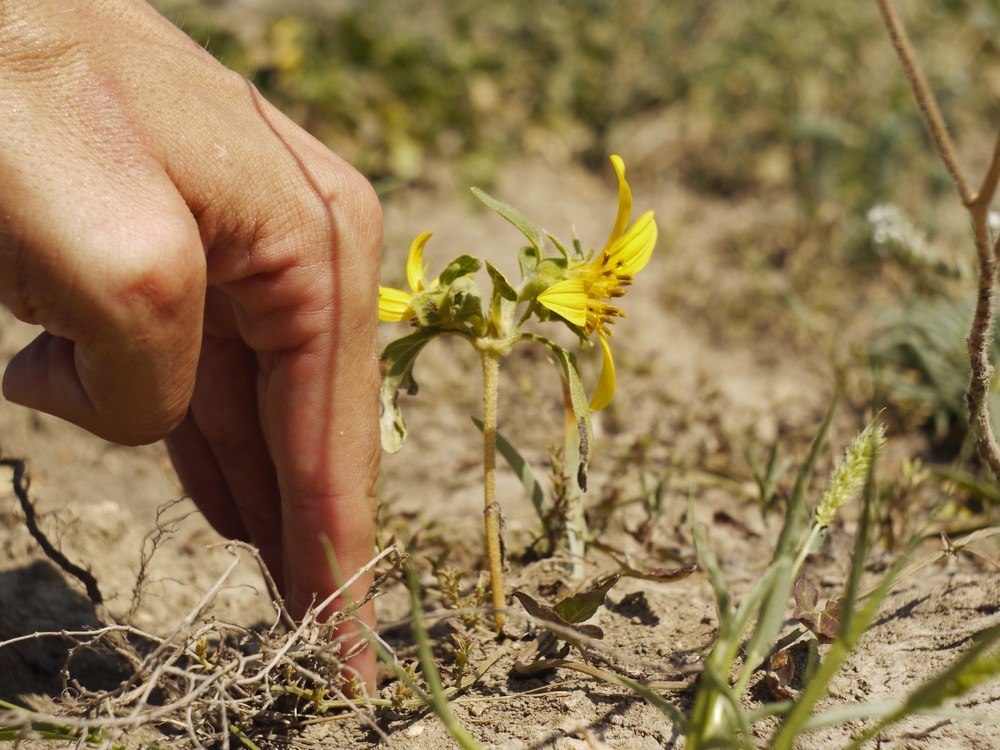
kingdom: Plantae
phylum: Tracheophyta
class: Magnoliopsida
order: Asterales
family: Asteraceae
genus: Helianthus
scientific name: Helianthus annuus
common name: Sunflower
